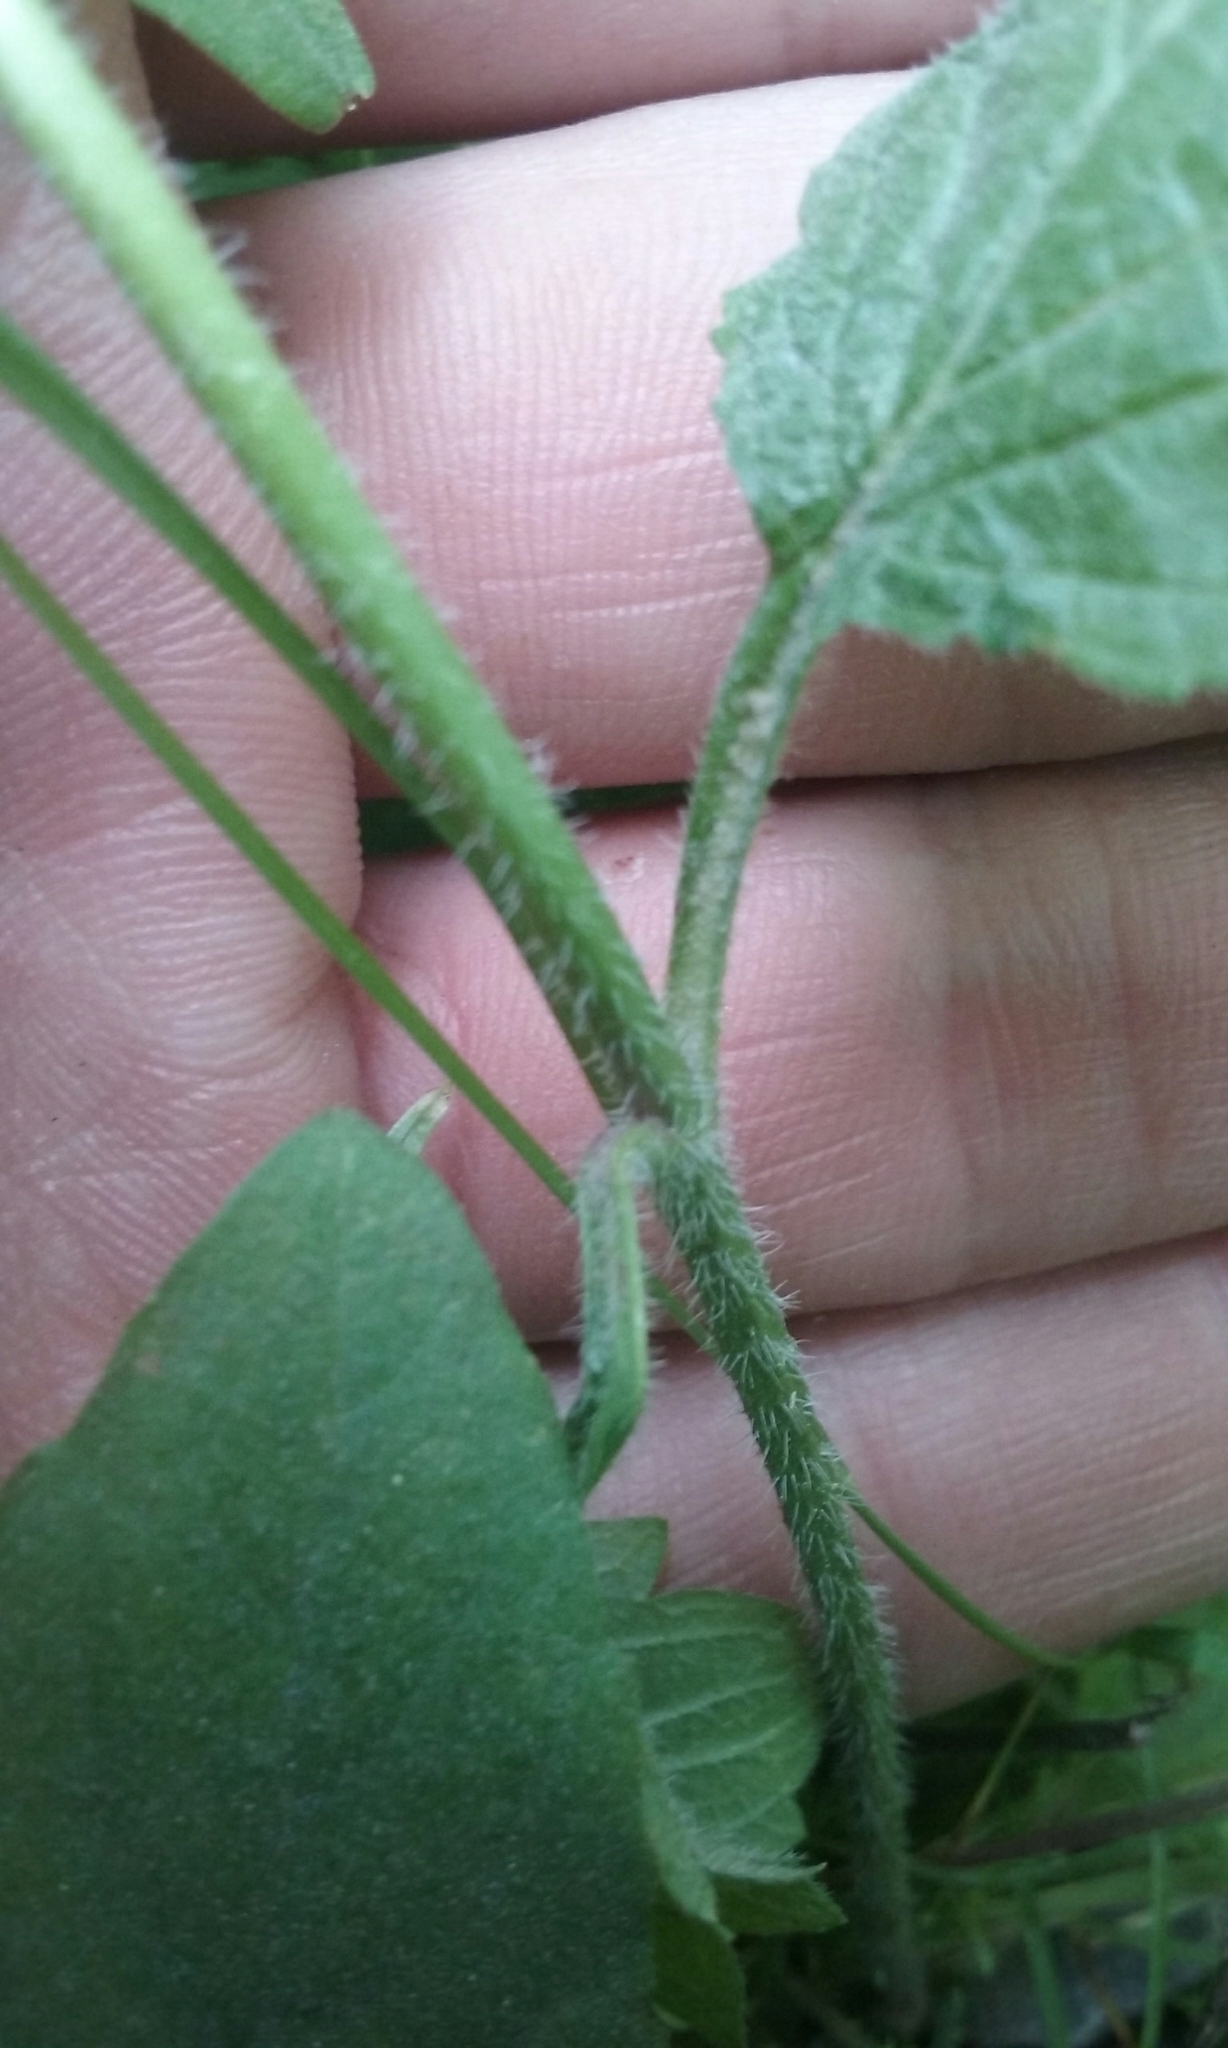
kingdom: Plantae
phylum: Tracheophyta
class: Magnoliopsida
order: Lamiales
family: Verbenaceae
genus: Verbena
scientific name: Verbena urticifolia
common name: Nettle-leaved vervain
